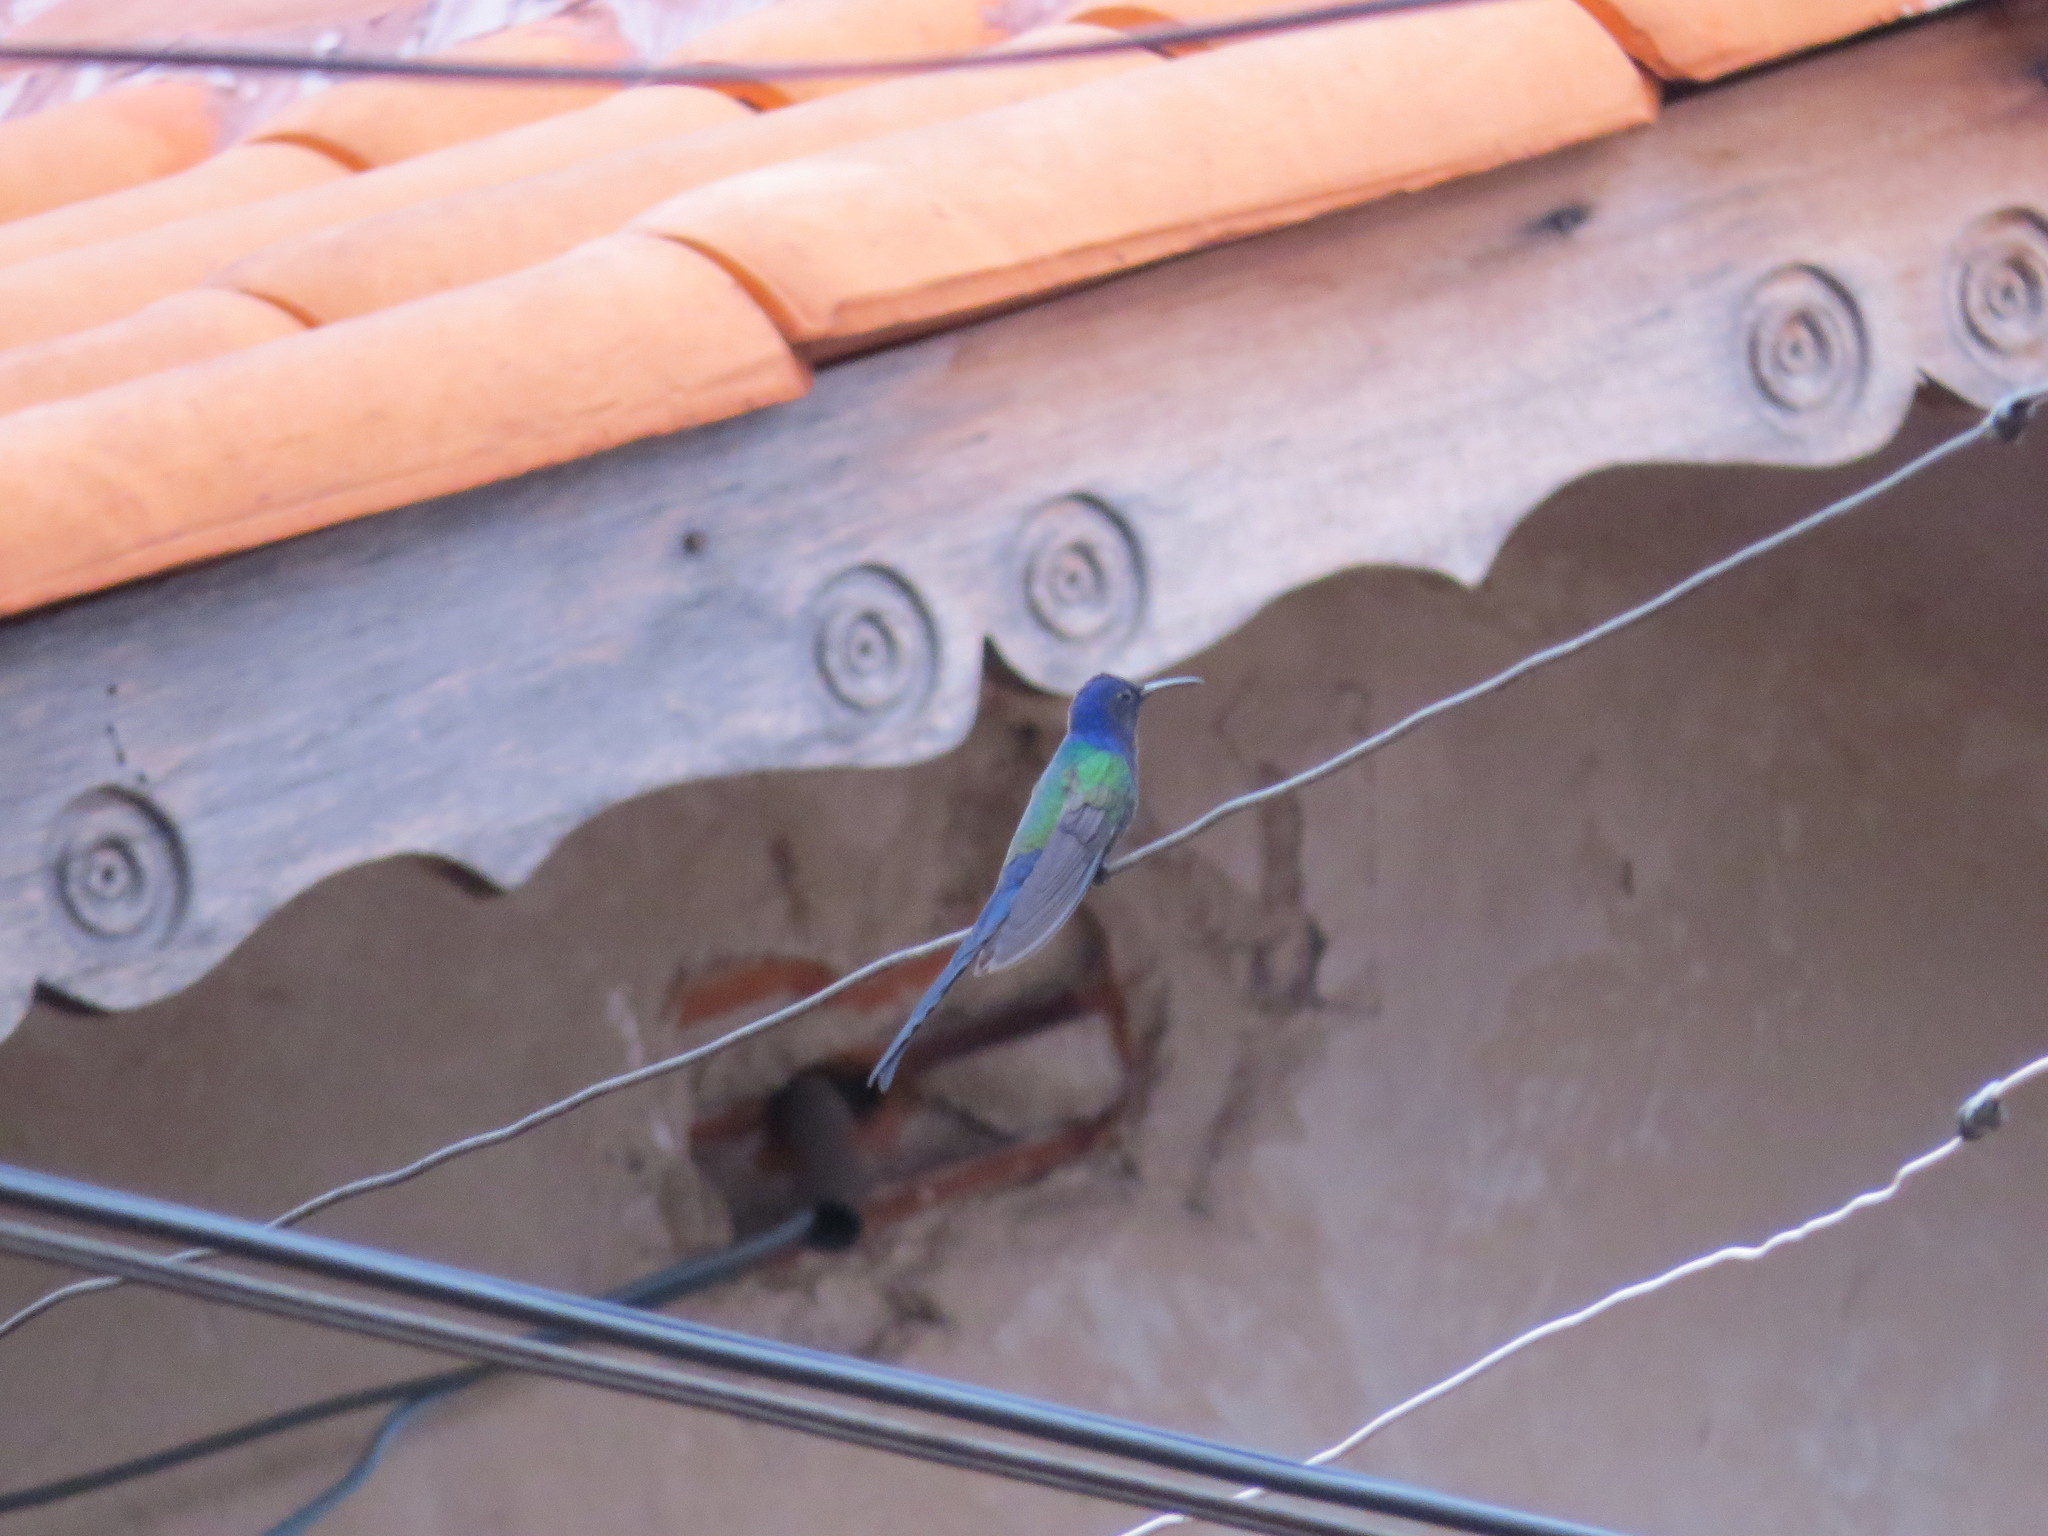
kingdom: Animalia
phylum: Chordata
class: Aves
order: Apodiformes
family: Trochilidae
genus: Eupetomena
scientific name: Eupetomena macroura
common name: Swallow-tailed hummingbird
